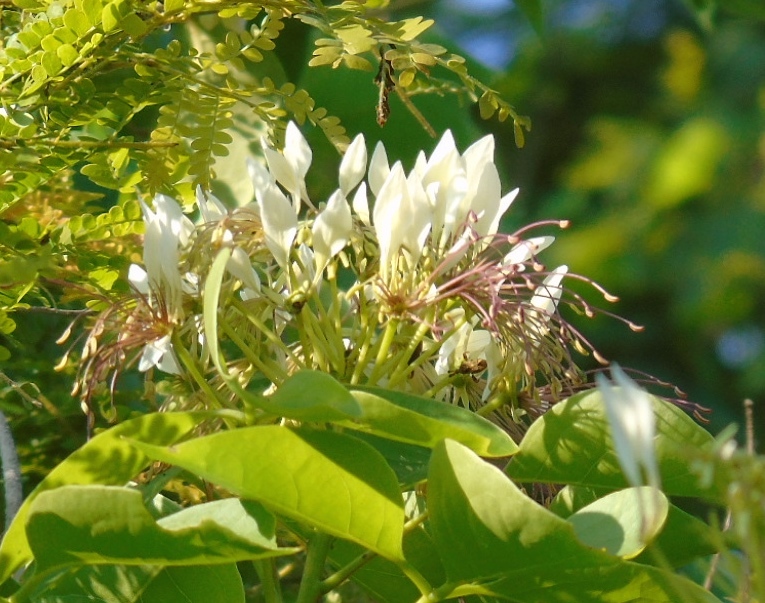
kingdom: Plantae
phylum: Tracheophyta
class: Magnoliopsida
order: Brassicales
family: Capparaceae
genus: Crateva
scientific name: Crateva tapia
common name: Garlic-pear
